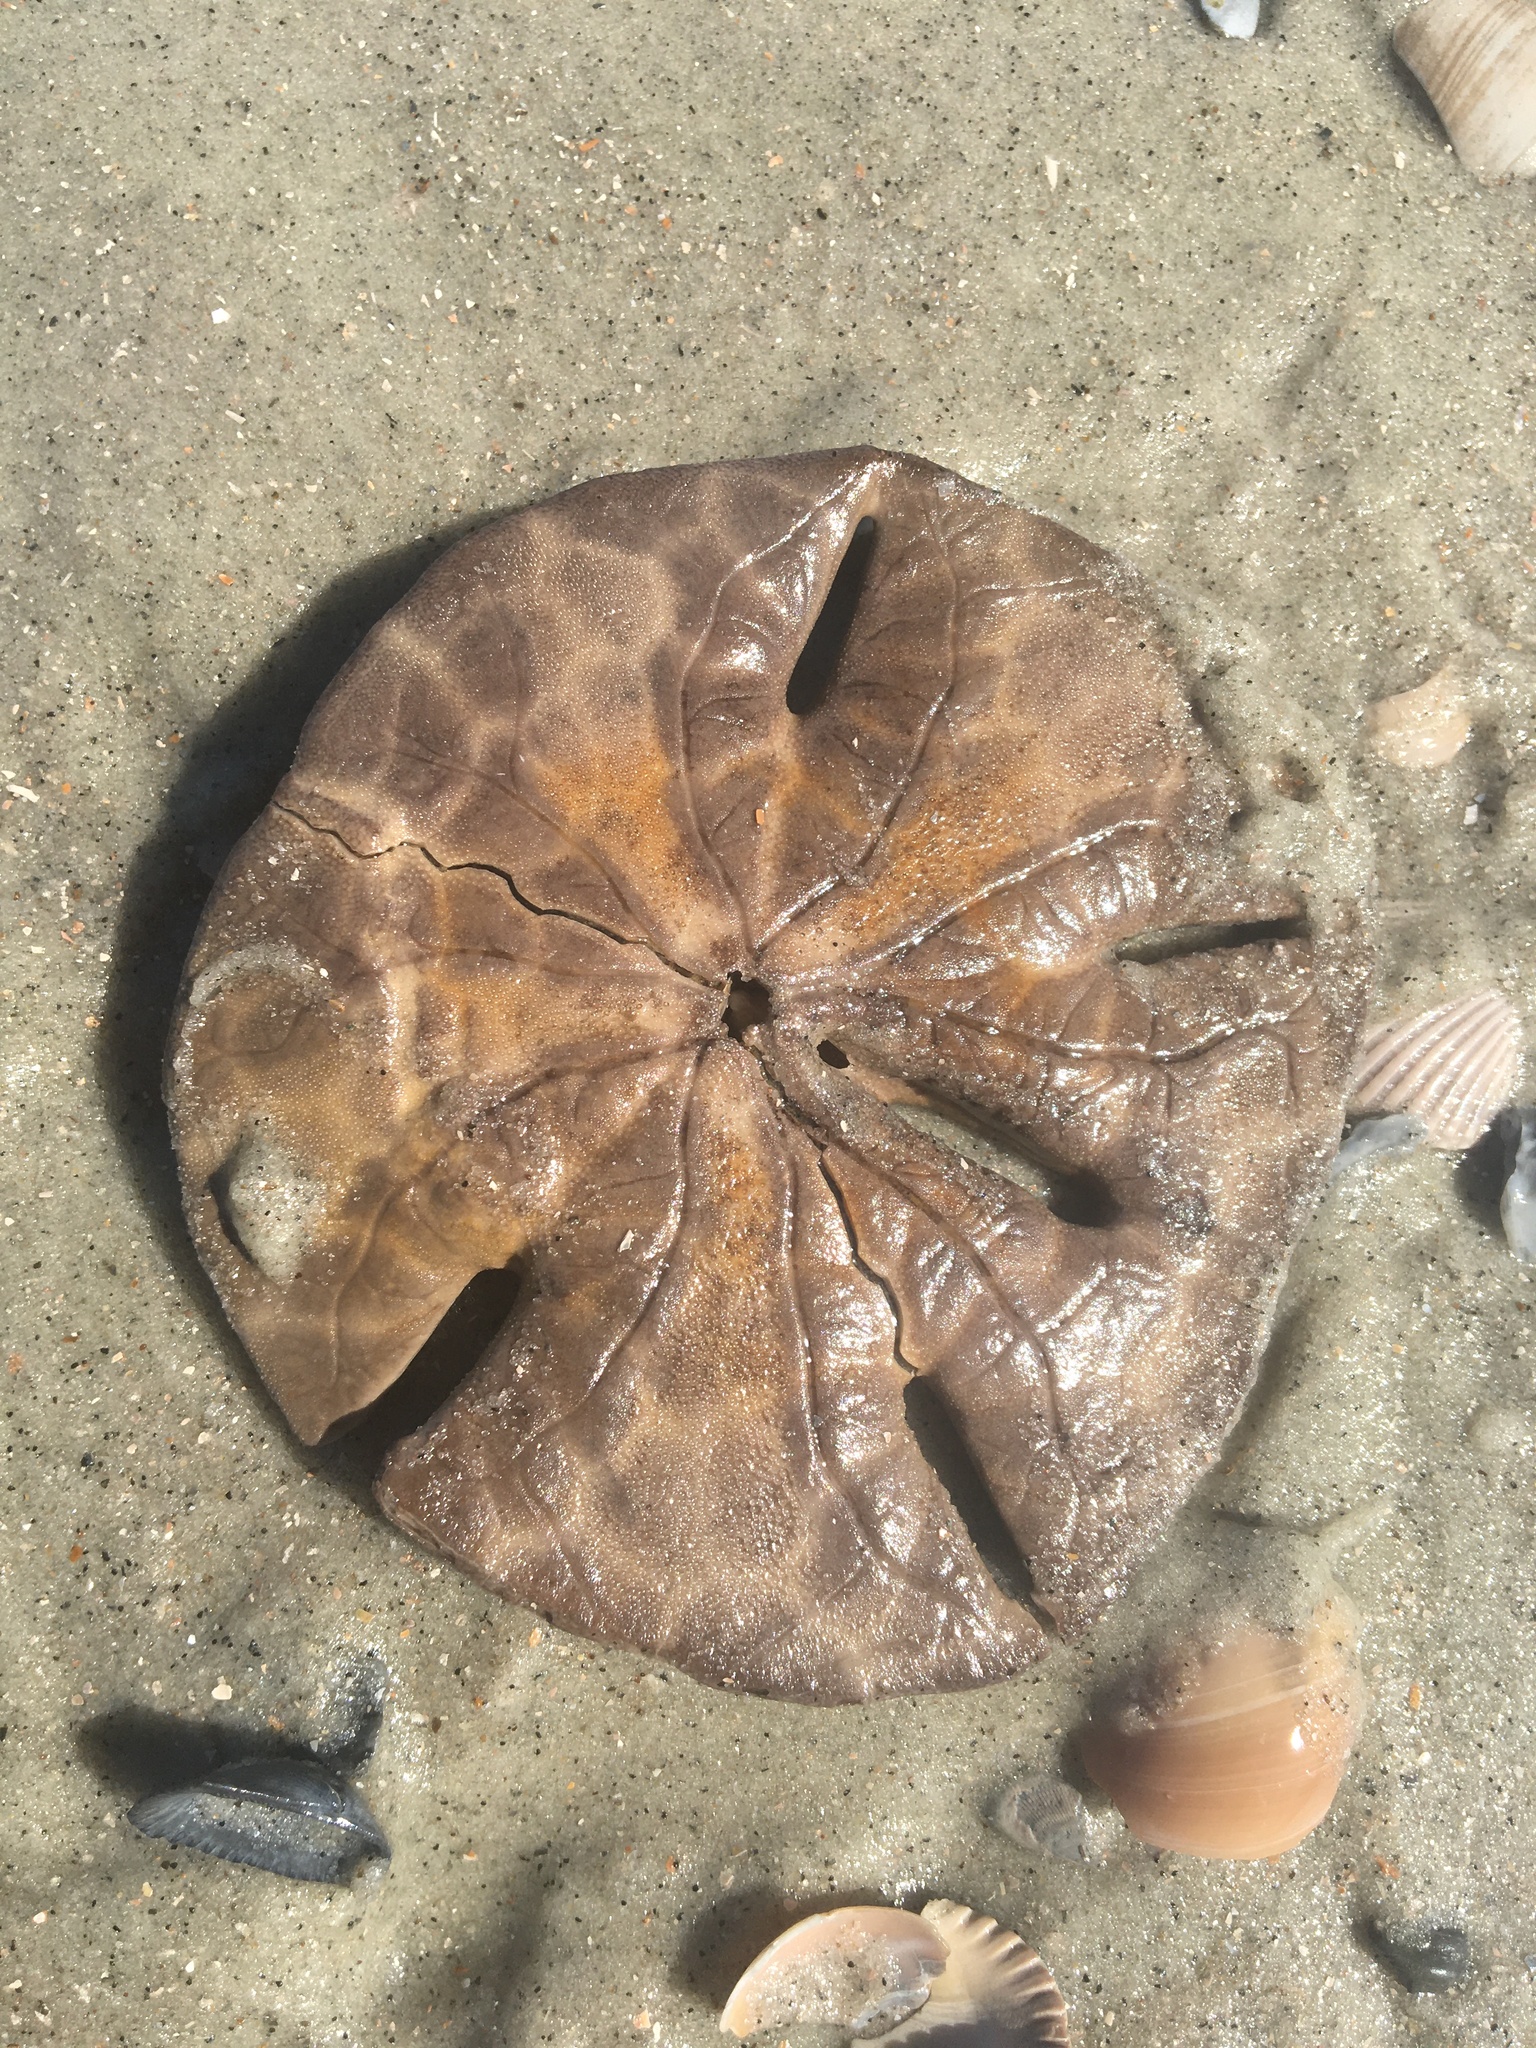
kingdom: Animalia
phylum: Echinodermata
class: Echinoidea
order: Echinolampadacea
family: Mellitidae
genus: Mellita
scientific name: Mellita isometra
